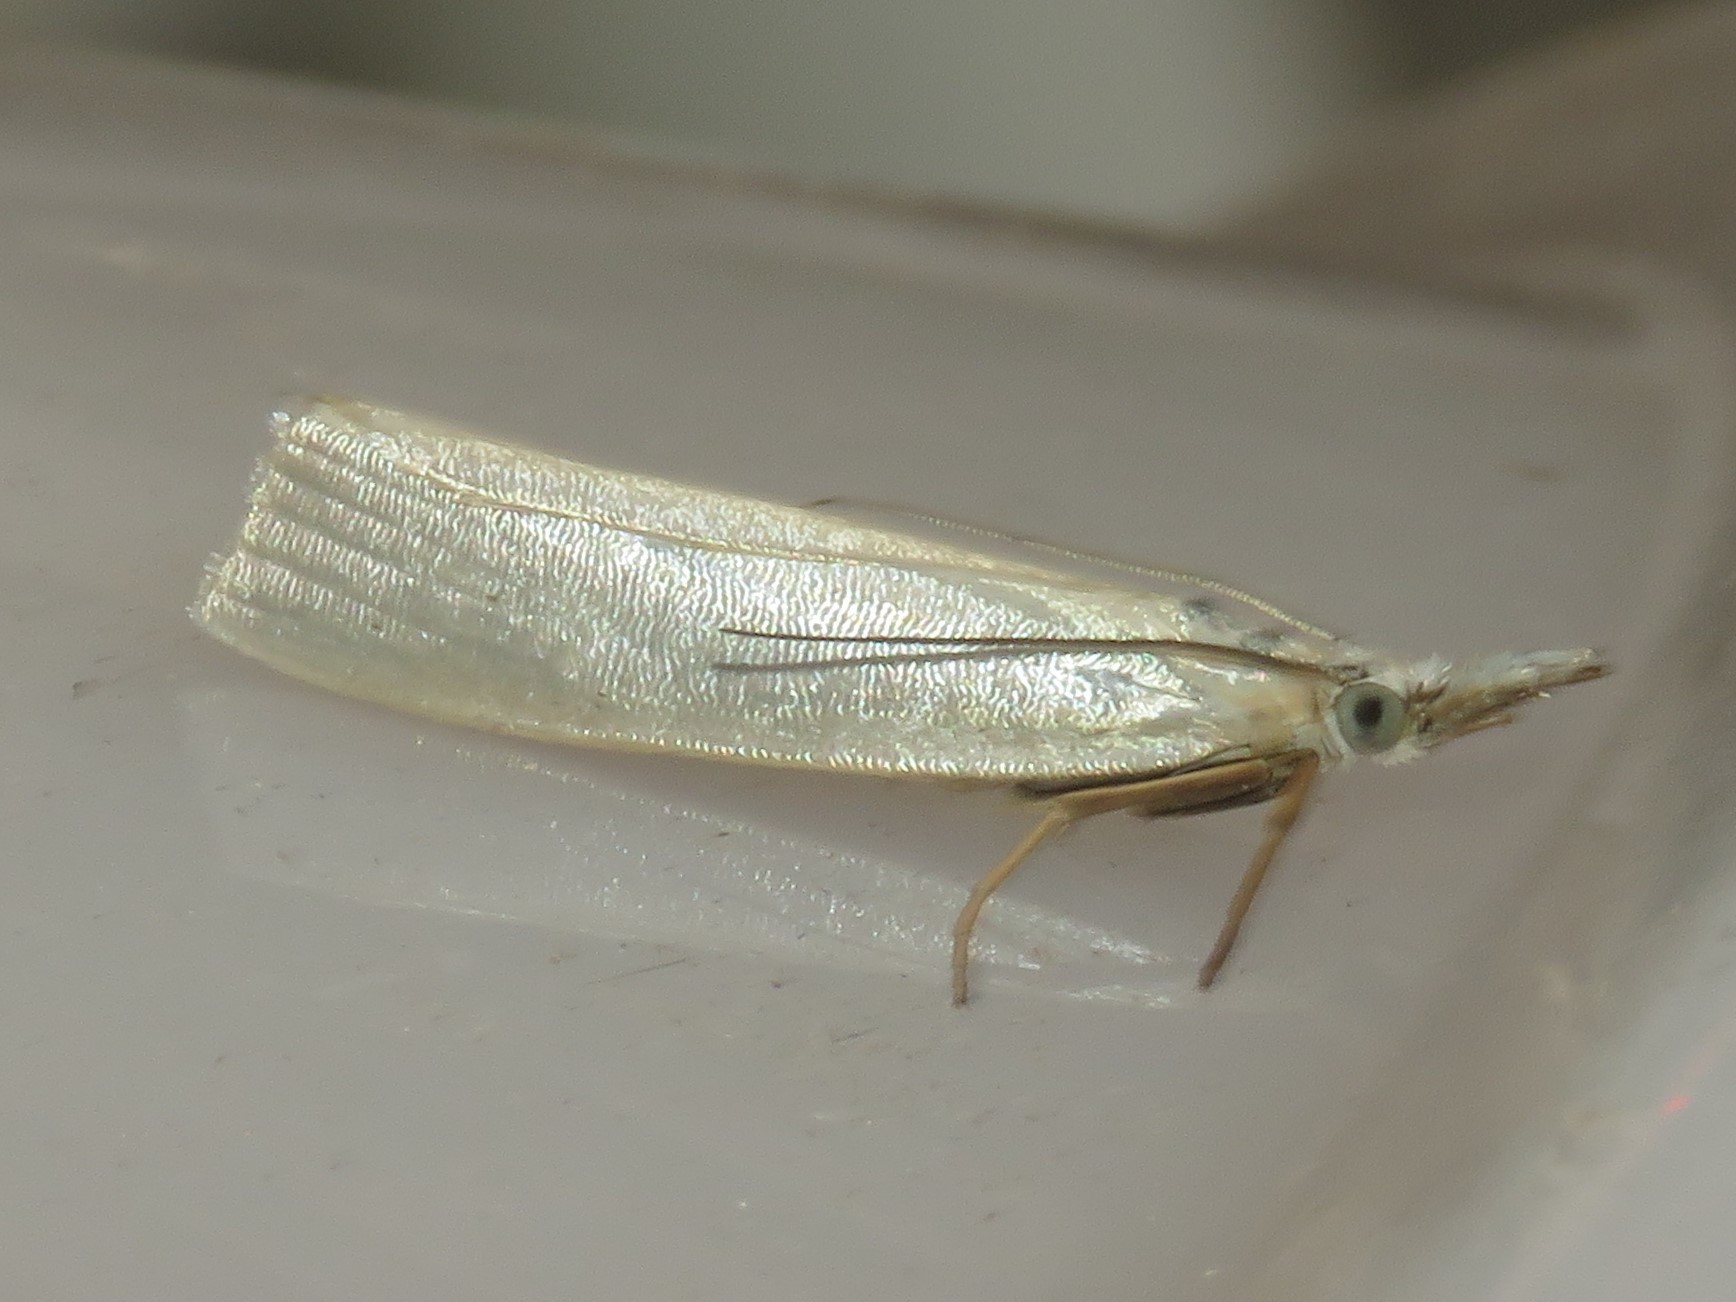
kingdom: Animalia
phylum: Arthropoda
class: Insecta
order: Lepidoptera
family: Crambidae
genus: Crambus
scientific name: Crambus perlellus
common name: Yellow satin veneer
